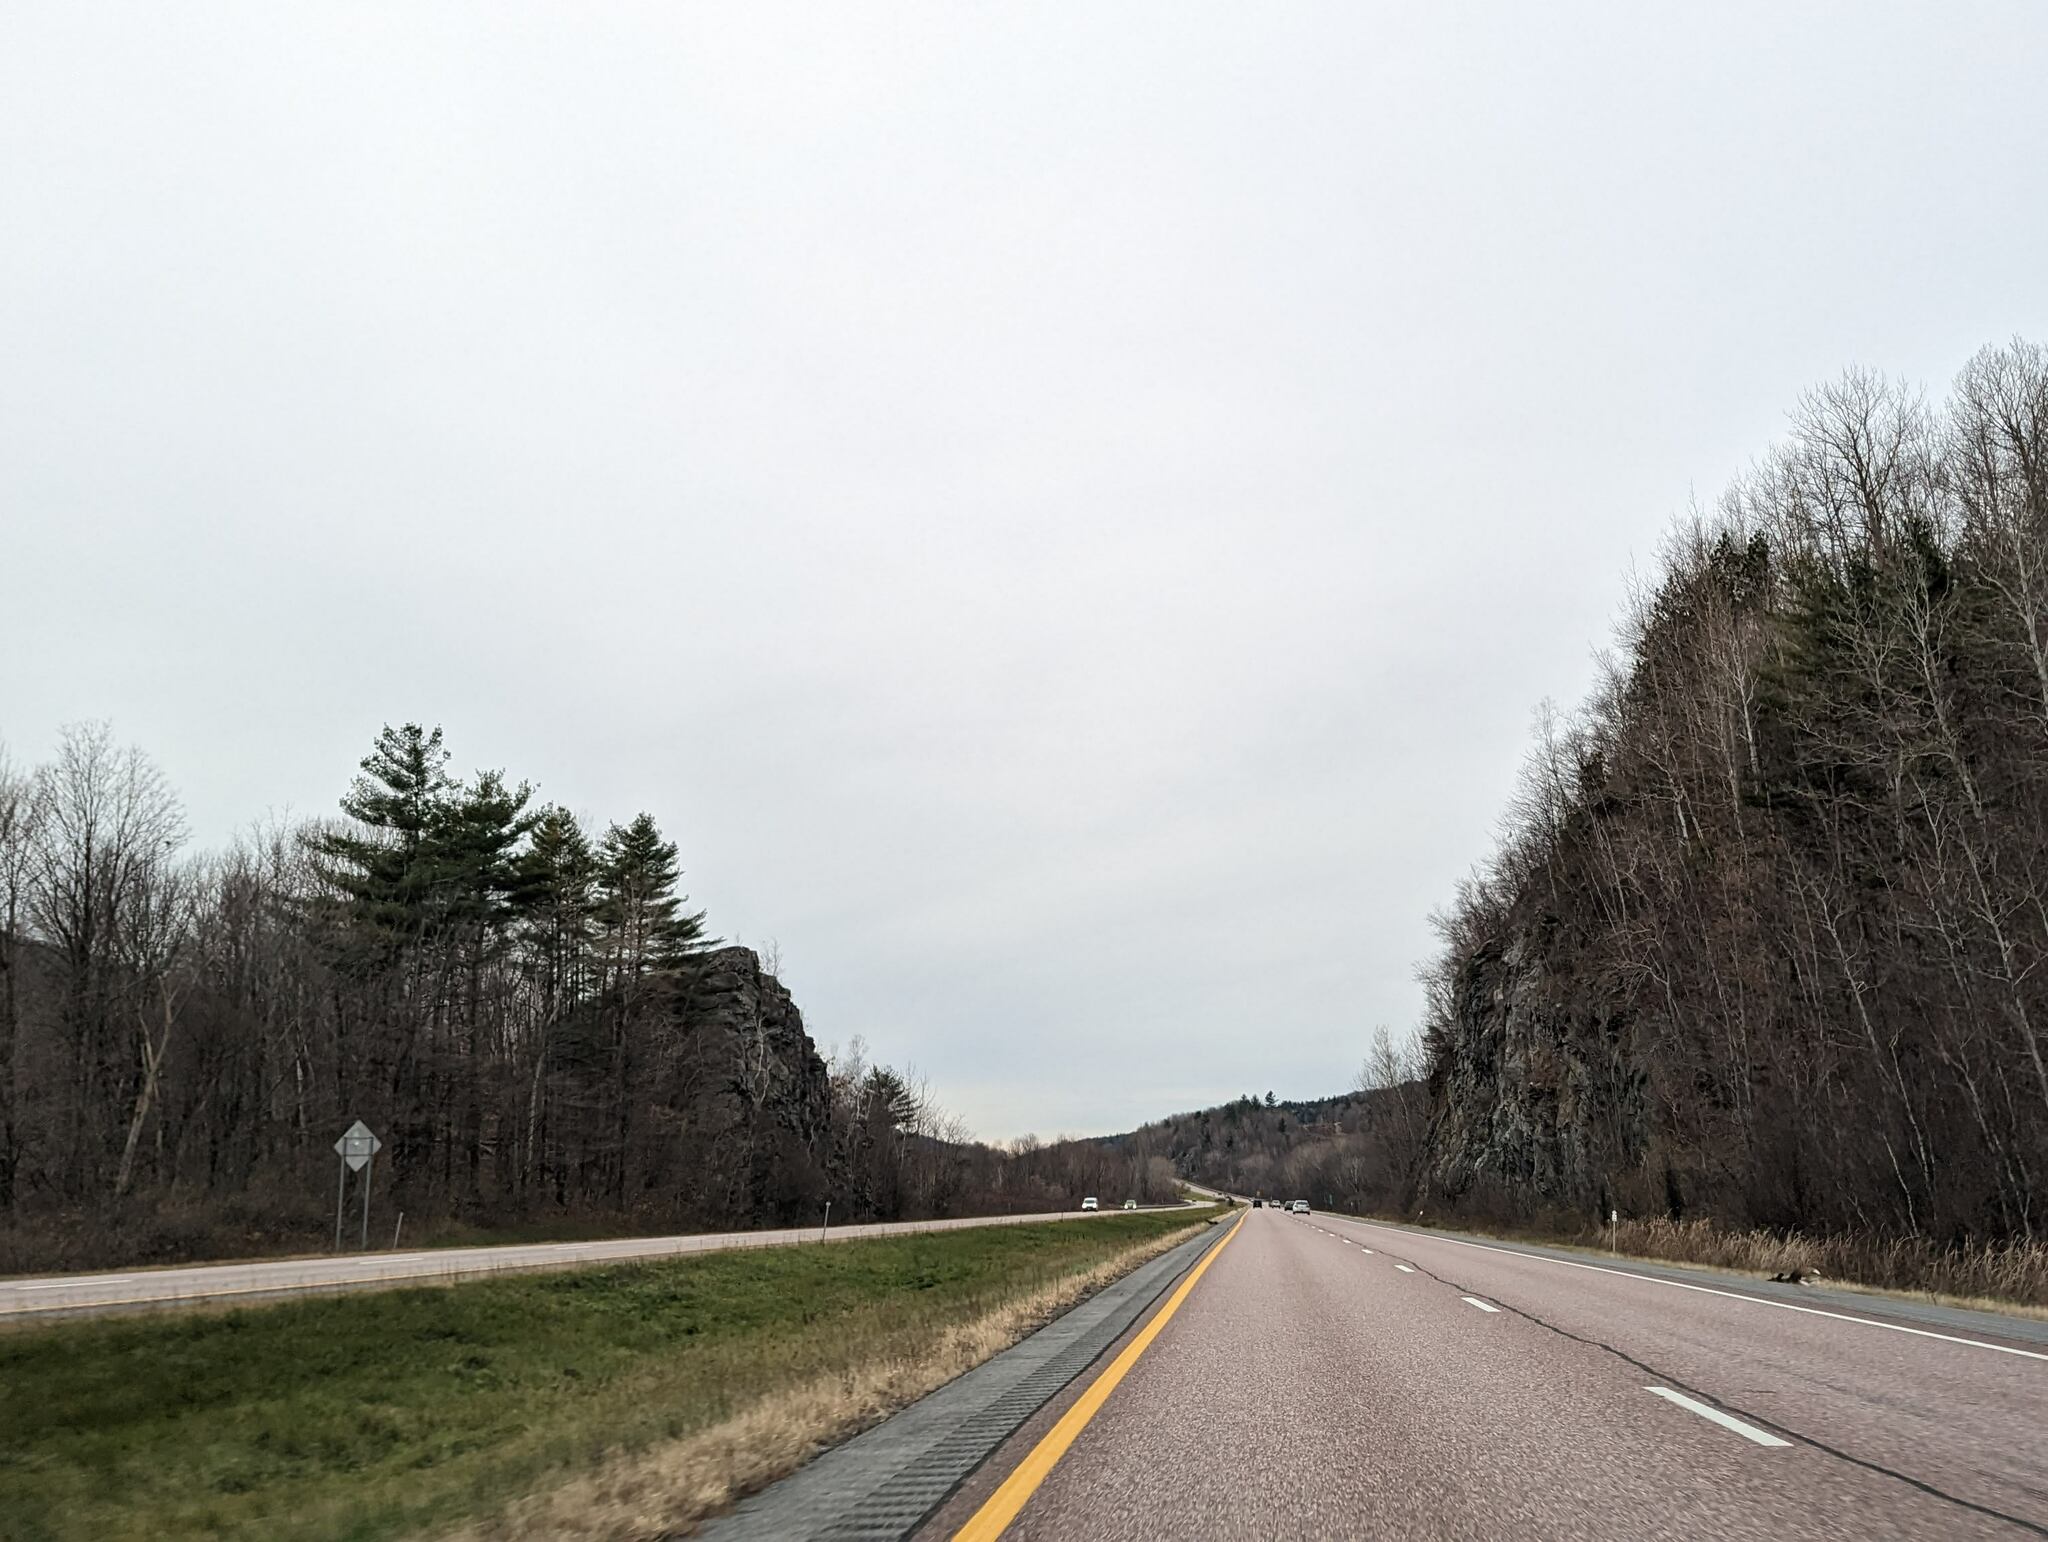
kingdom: Plantae
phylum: Tracheophyta
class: Pinopsida
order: Pinales
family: Pinaceae
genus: Pinus
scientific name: Pinus strobus
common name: Weymouth pine
